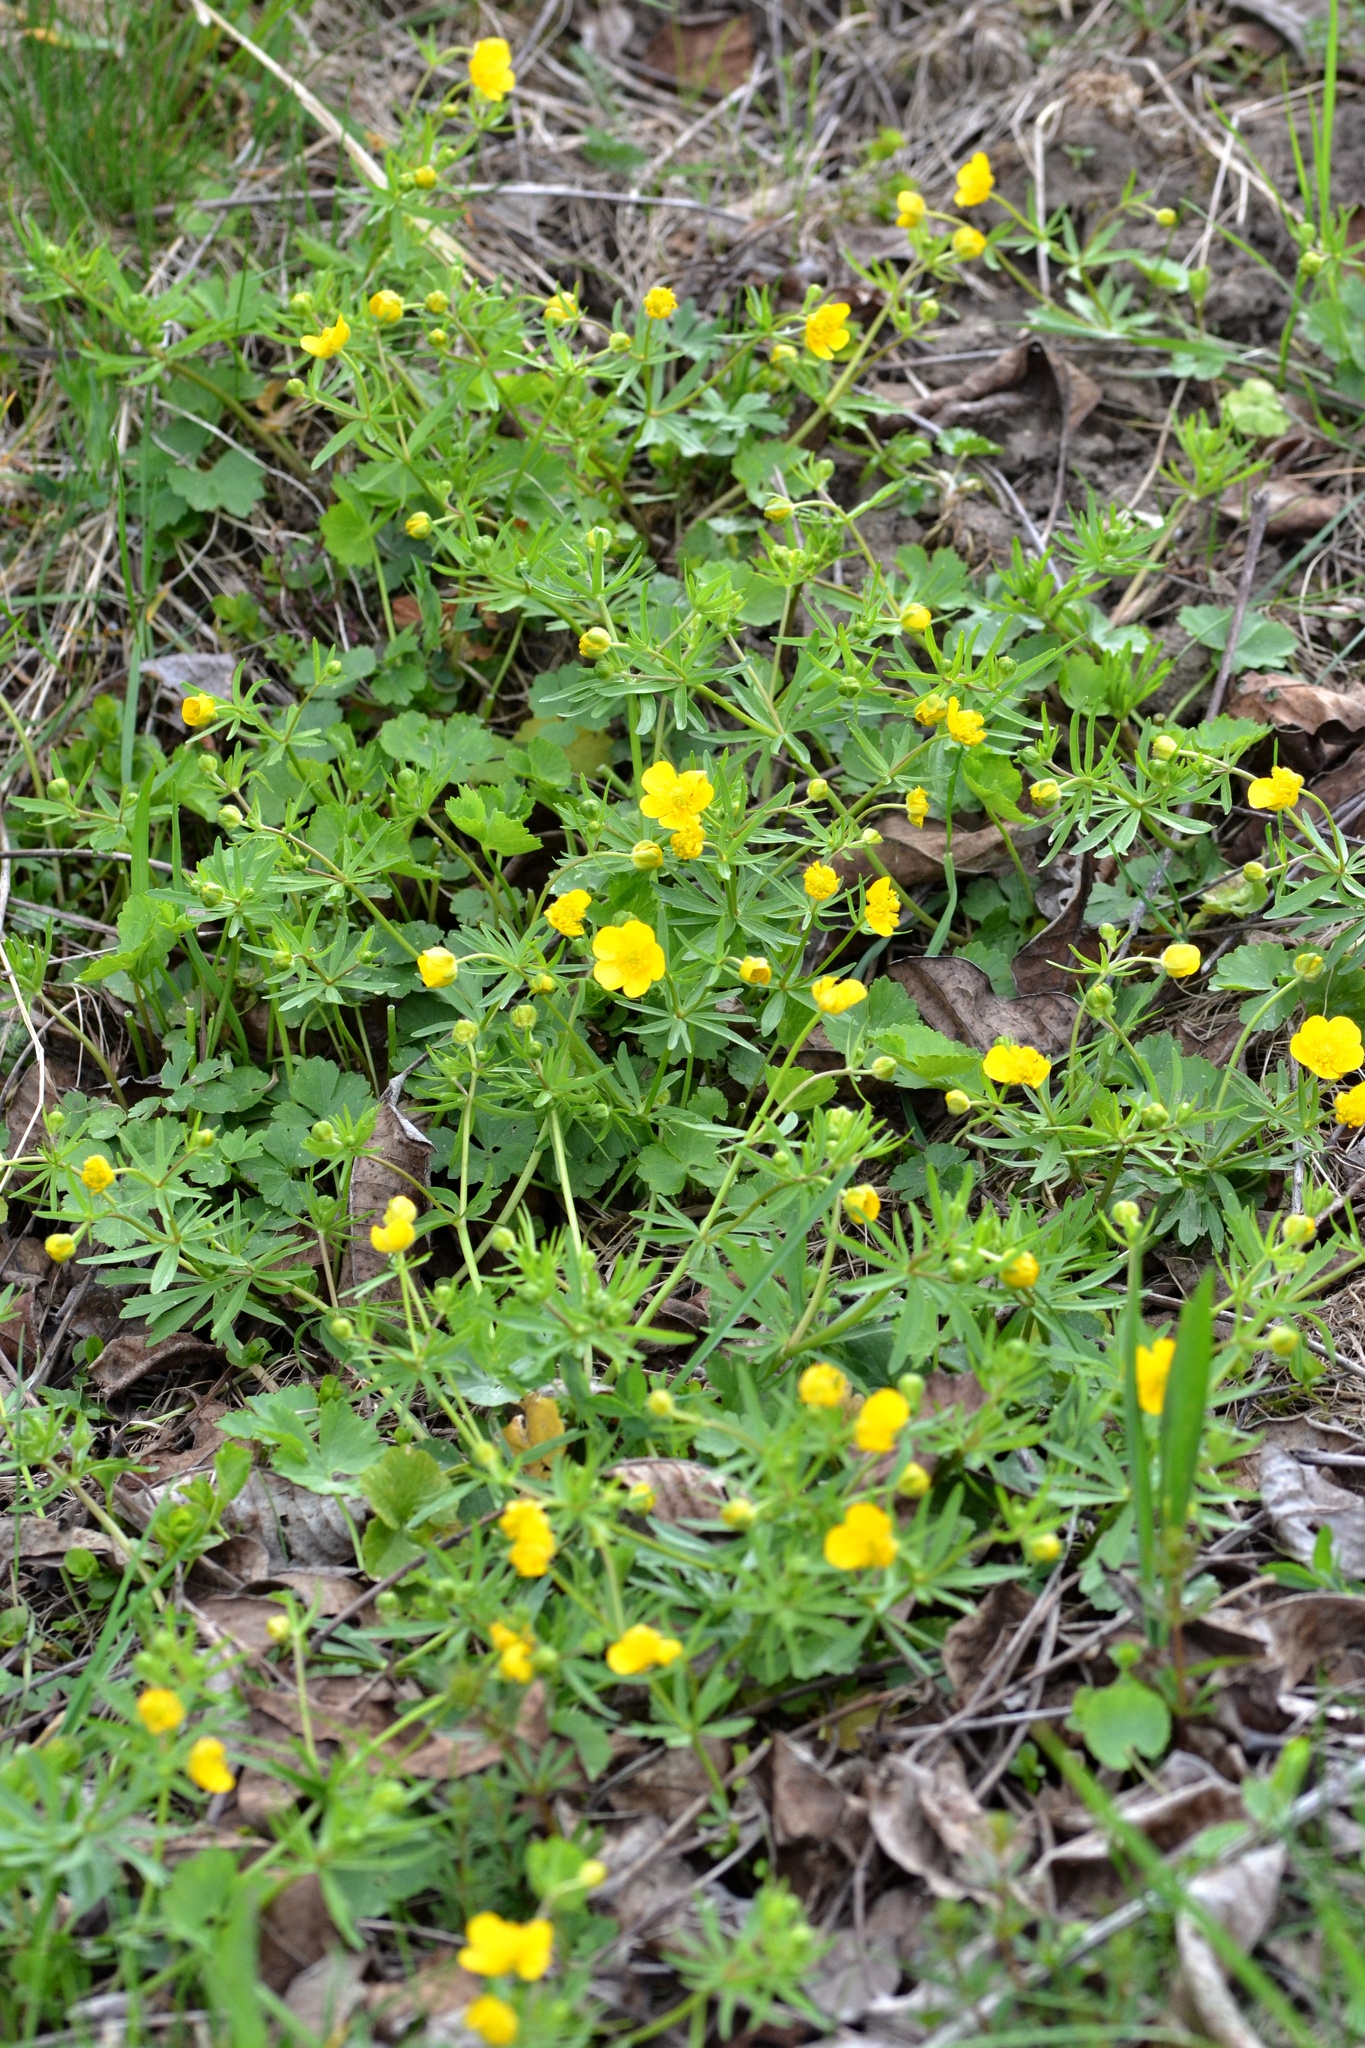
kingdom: Plantae
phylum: Tracheophyta
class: Magnoliopsida
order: Ranunculales
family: Ranunculaceae
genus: Ranunculus
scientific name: Ranunculus auricomus
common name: Goldilocks buttercup
